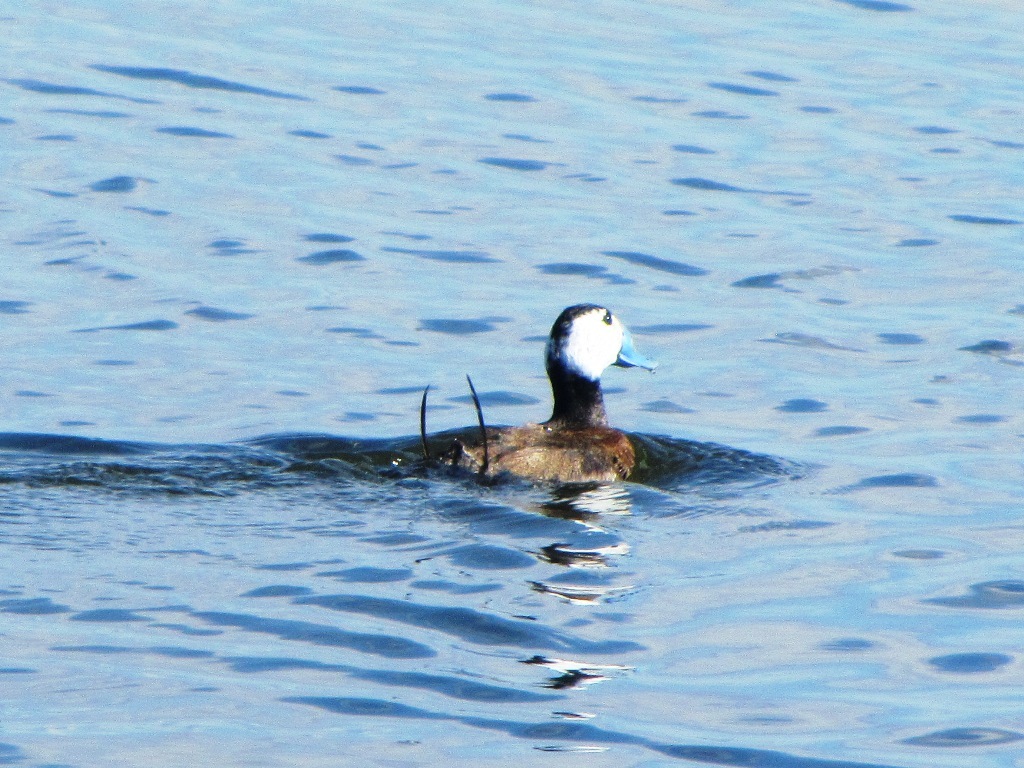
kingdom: Animalia
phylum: Chordata
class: Aves
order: Anseriformes
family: Anatidae
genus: Oxyura
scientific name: Oxyura leucocephala
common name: White-headed duck
